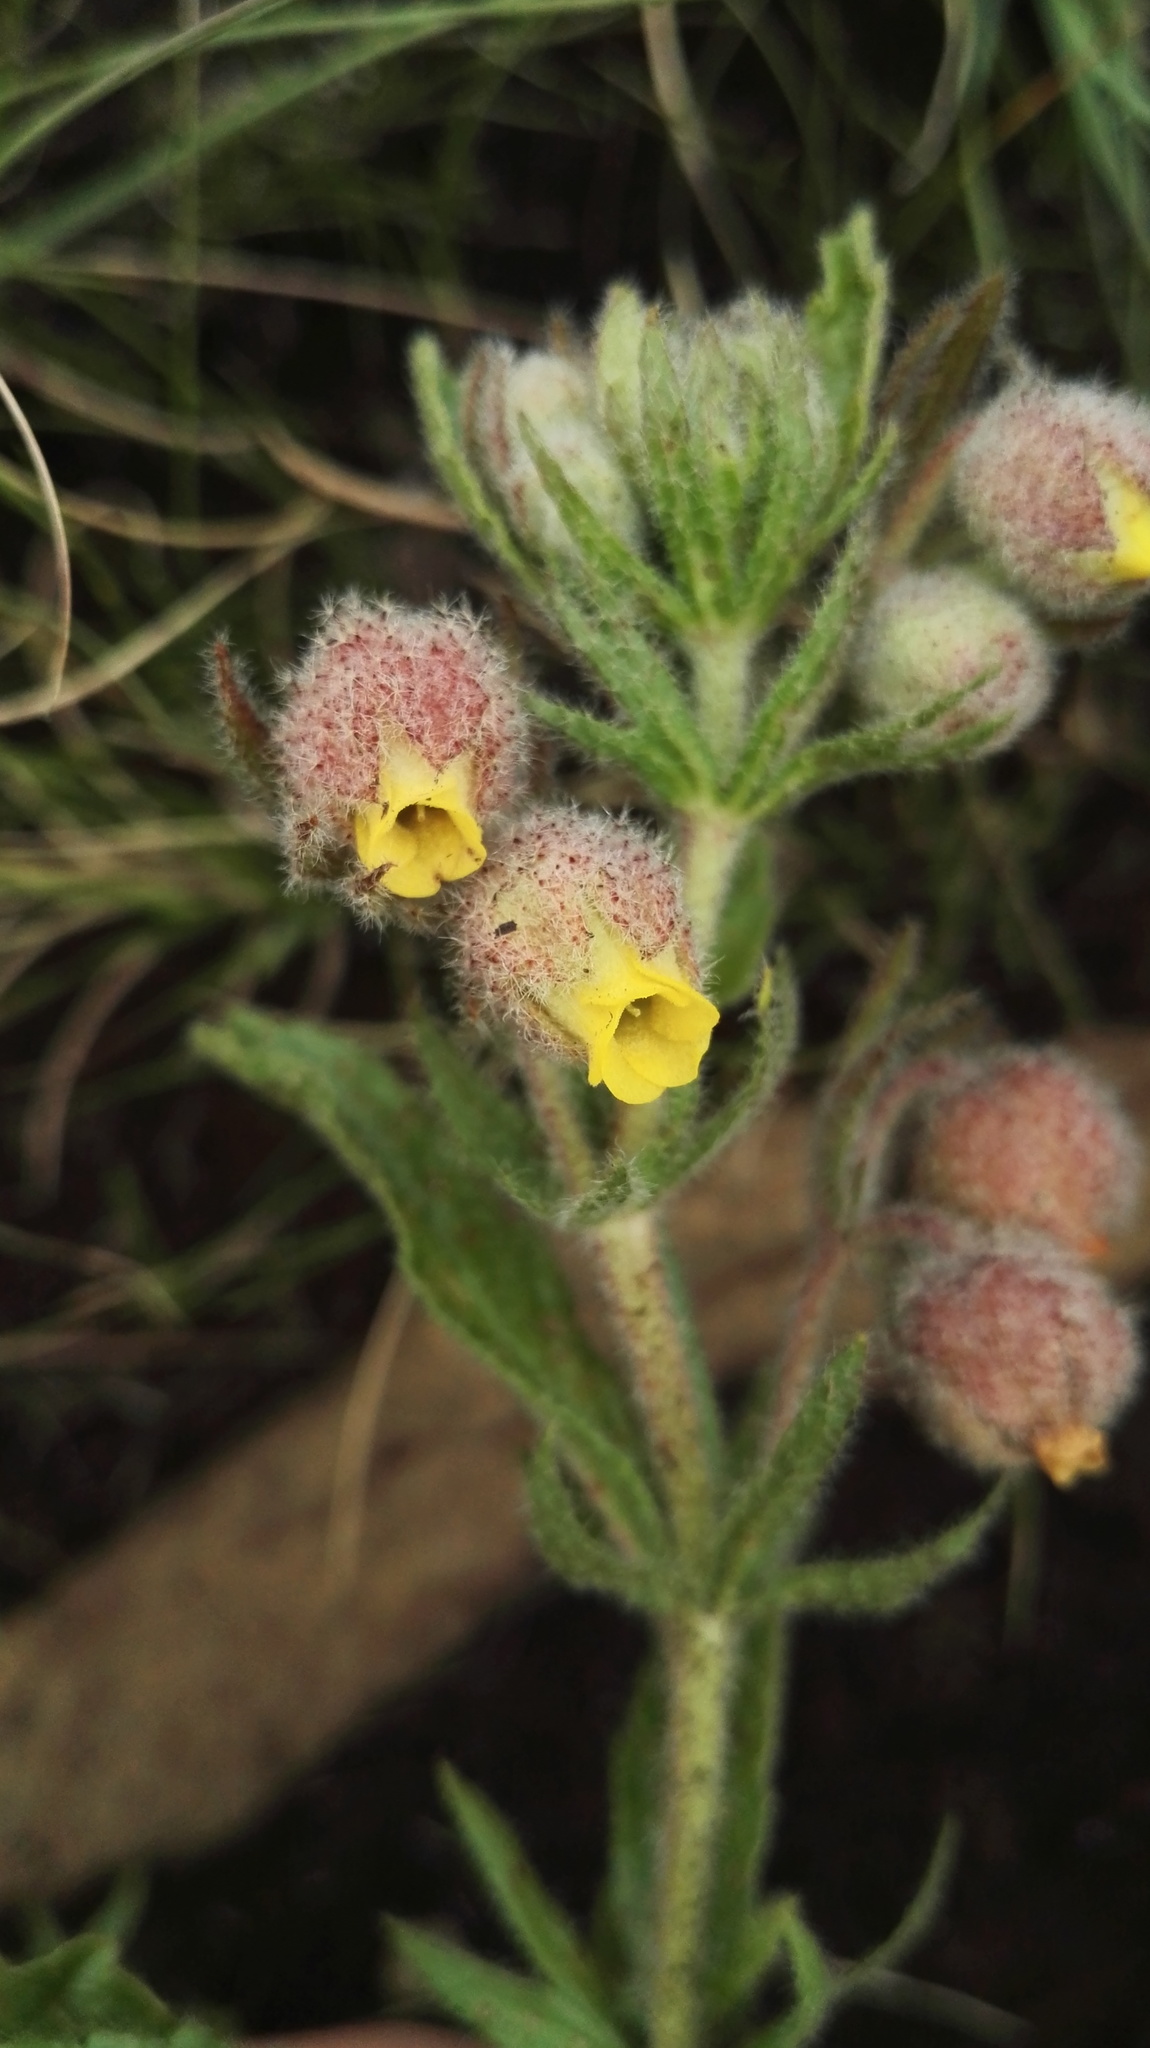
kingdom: Plantae
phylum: Tracheophyta
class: Magnoliopsida
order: Malvales
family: Malvaceae
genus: Hermannia
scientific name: Hermannia grandistipula
